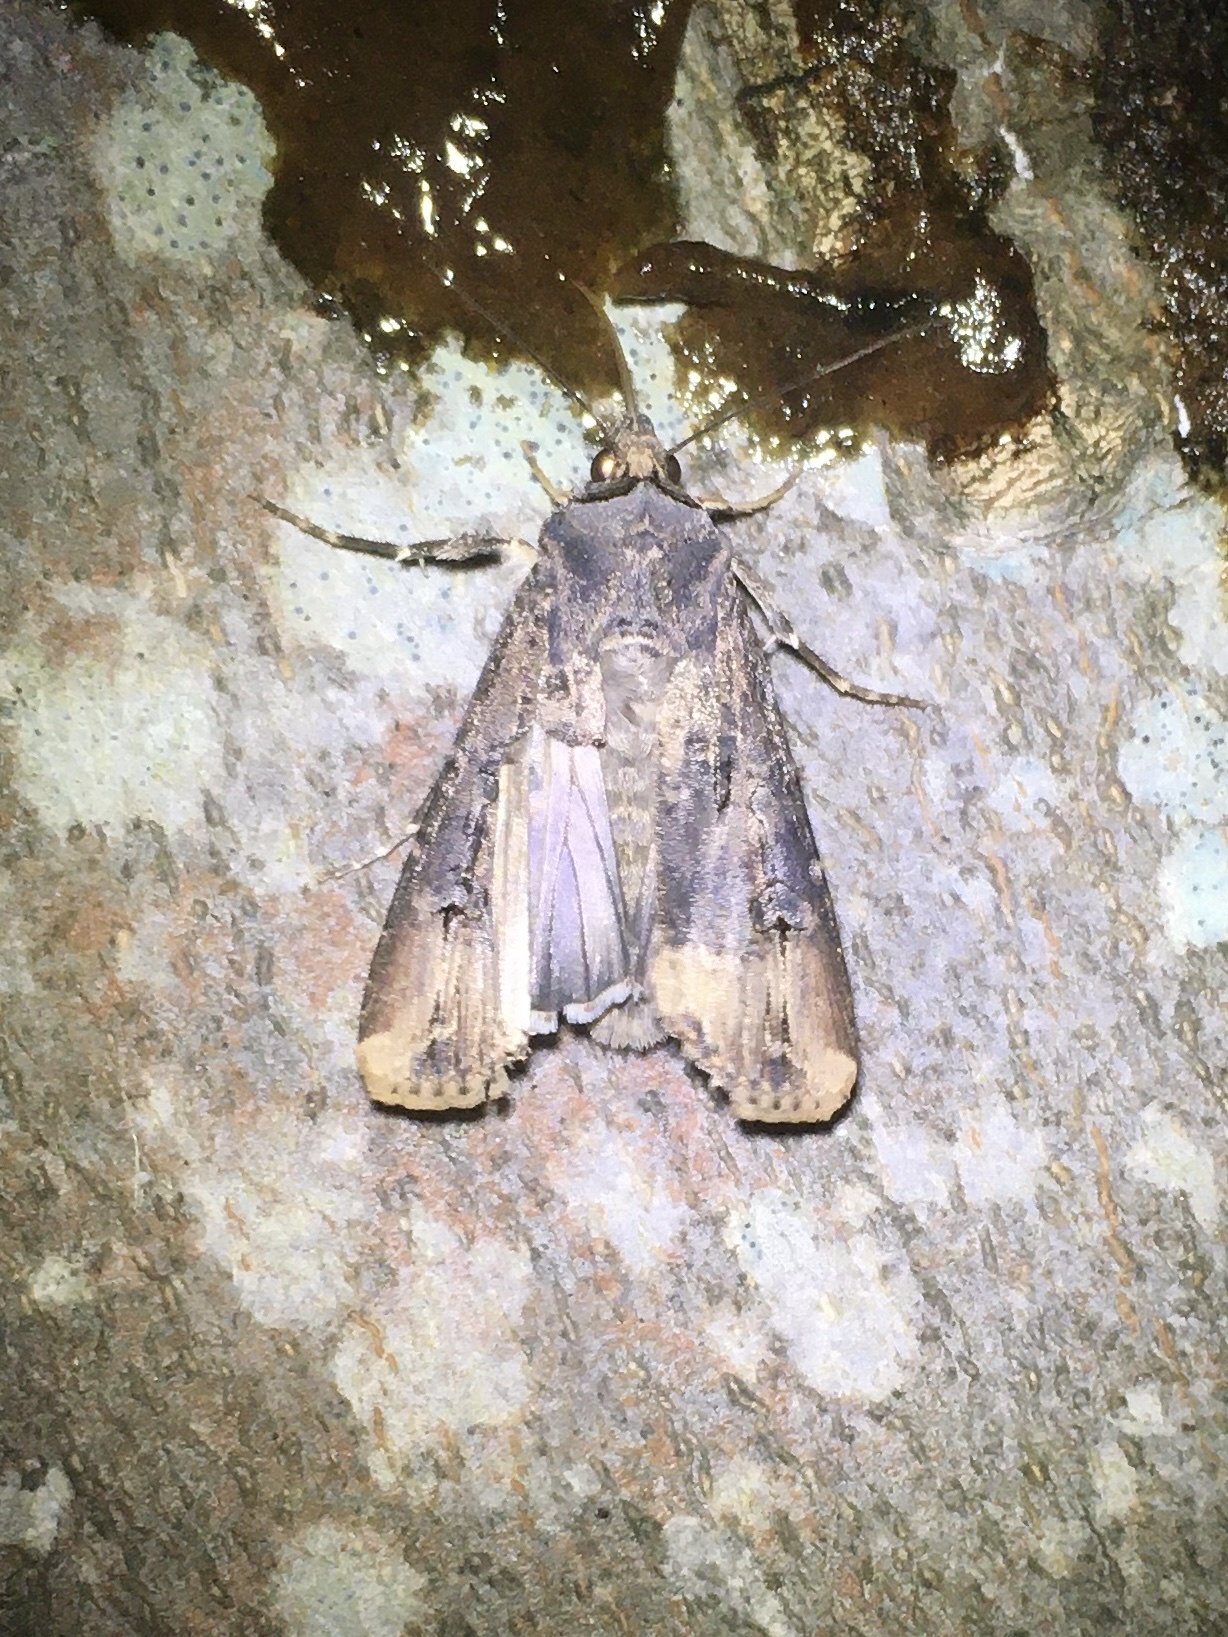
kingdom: Animalia
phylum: Arthropoda
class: Insecta
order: Lepidoptera
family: Noctuidae
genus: Agrotis
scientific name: Agrotis ipsilon
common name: Dark sword-grass
